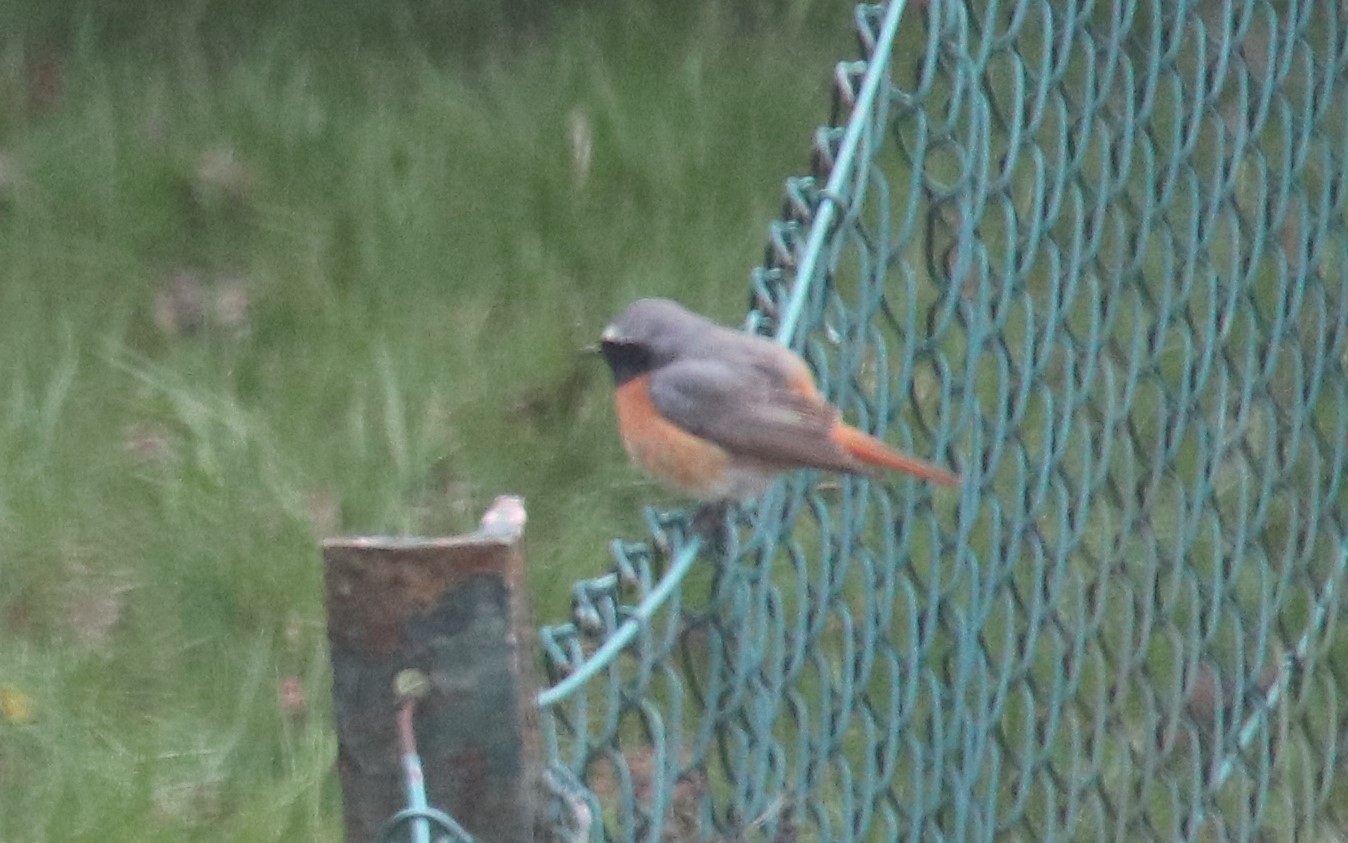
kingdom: Animalia
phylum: Chordata
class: Aves
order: Passeriformes
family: Muscicapidae
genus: Phoenicurus
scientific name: Phoenicurus phoenicurus
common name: Common redstart
